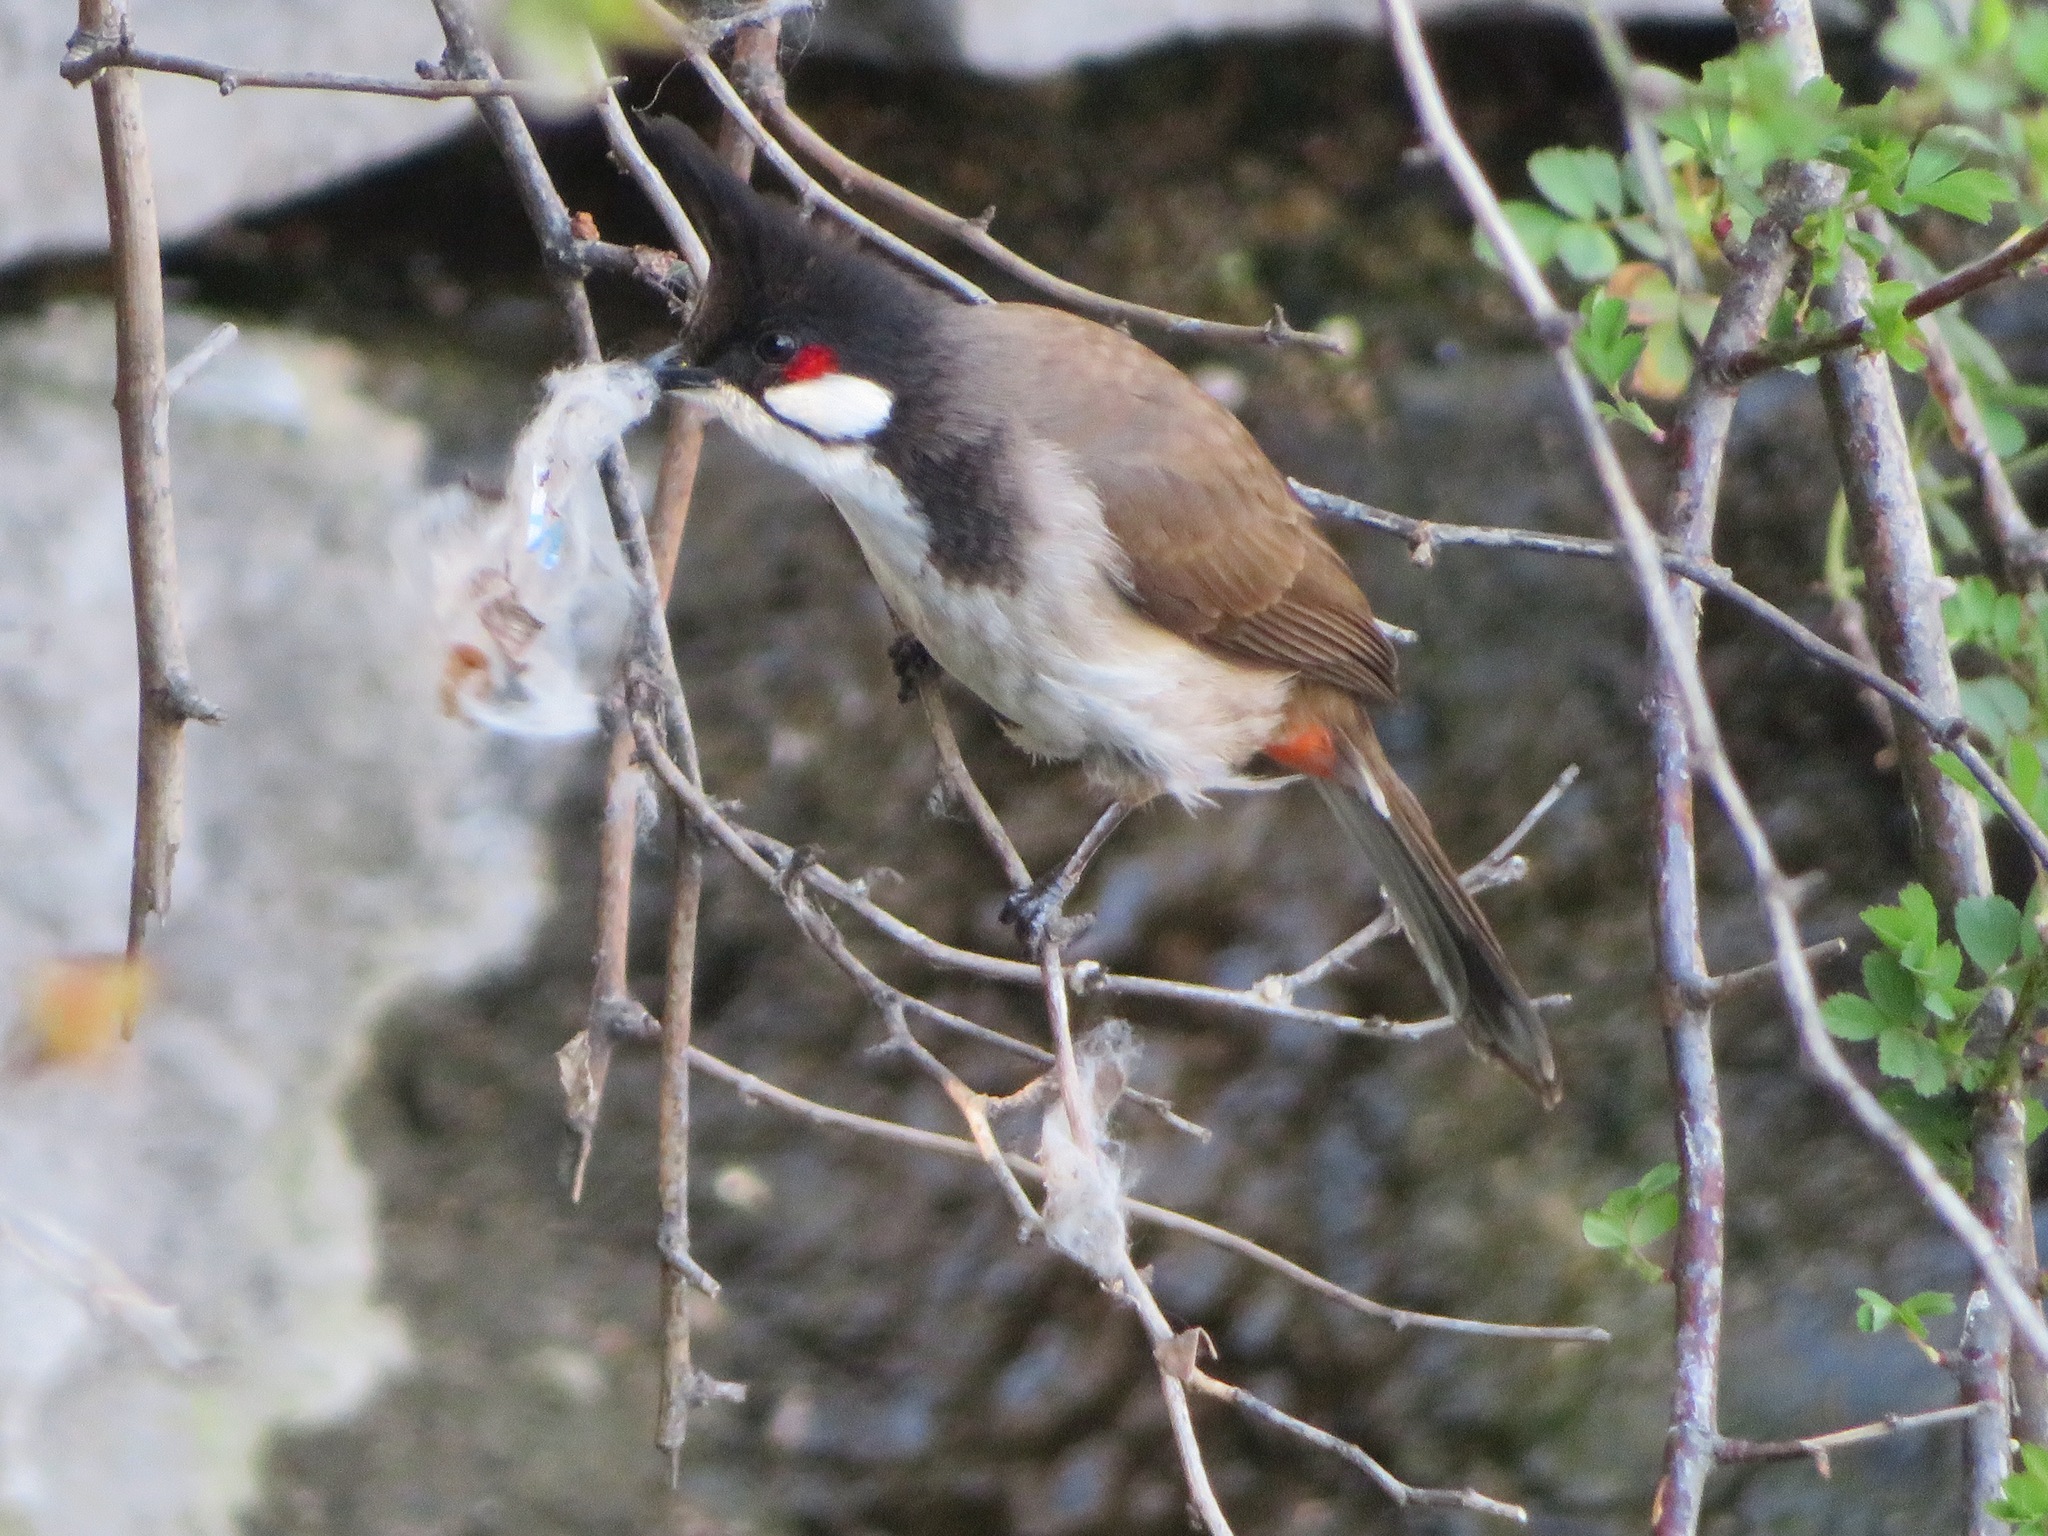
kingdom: Animalia
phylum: Chordata
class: Aves
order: Passeriformes
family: Pycnonotidae
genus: Pycnonotus
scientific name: Pycnonotus jocosus
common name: Red-whiskered bulbul
